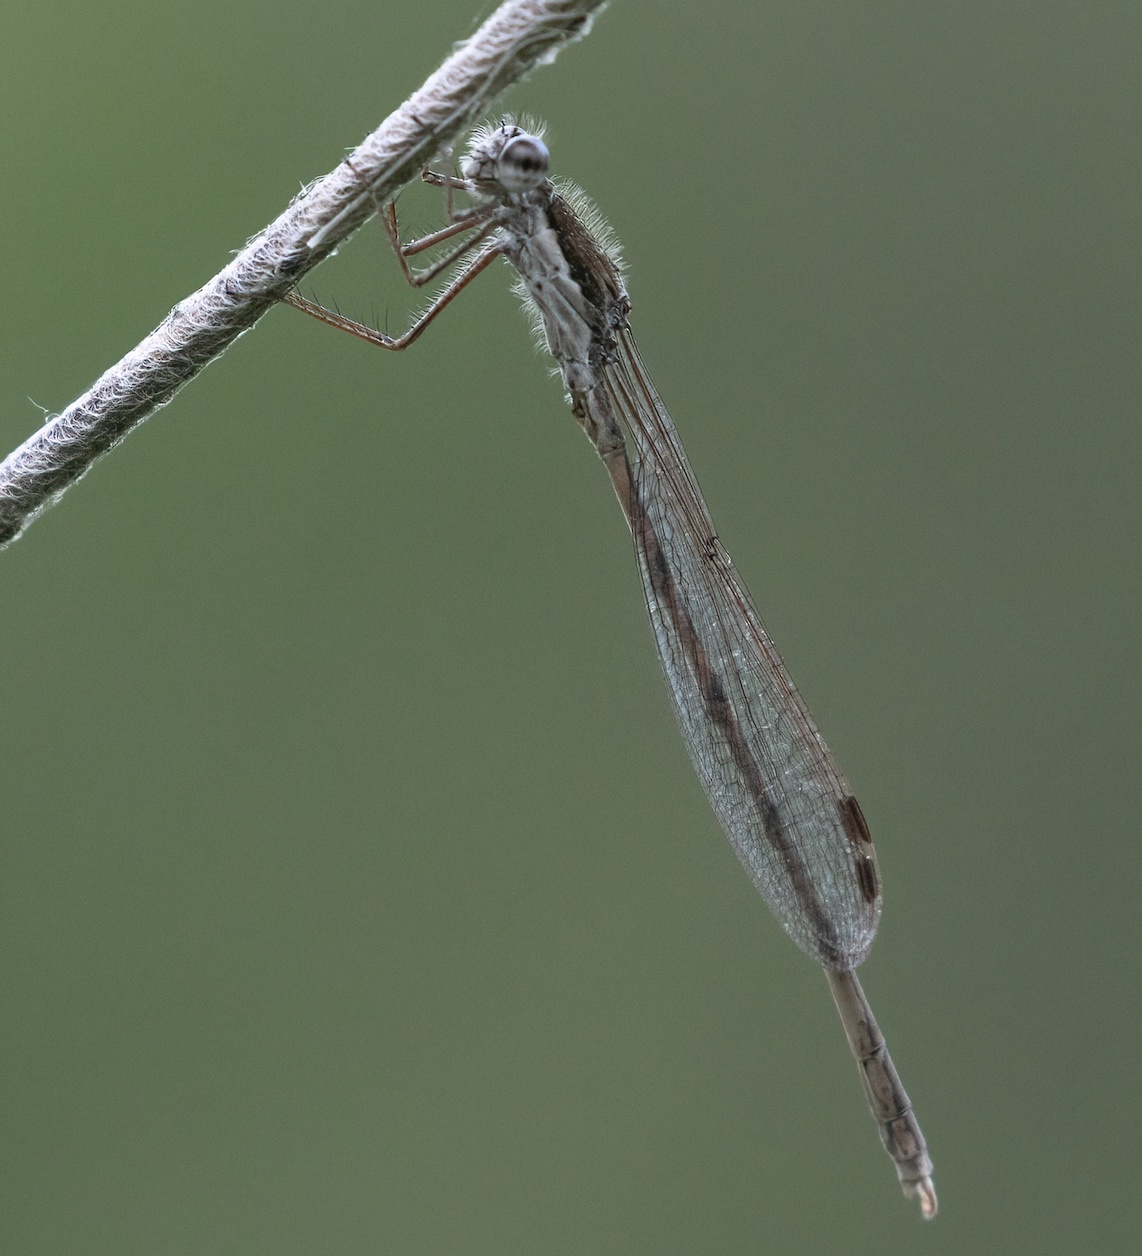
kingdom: Animalia
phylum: Arthropoda
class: Insecta
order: Odonata
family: Lestidae
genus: Sympecma
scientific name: Sympecma fusca
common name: Common winter damsel
